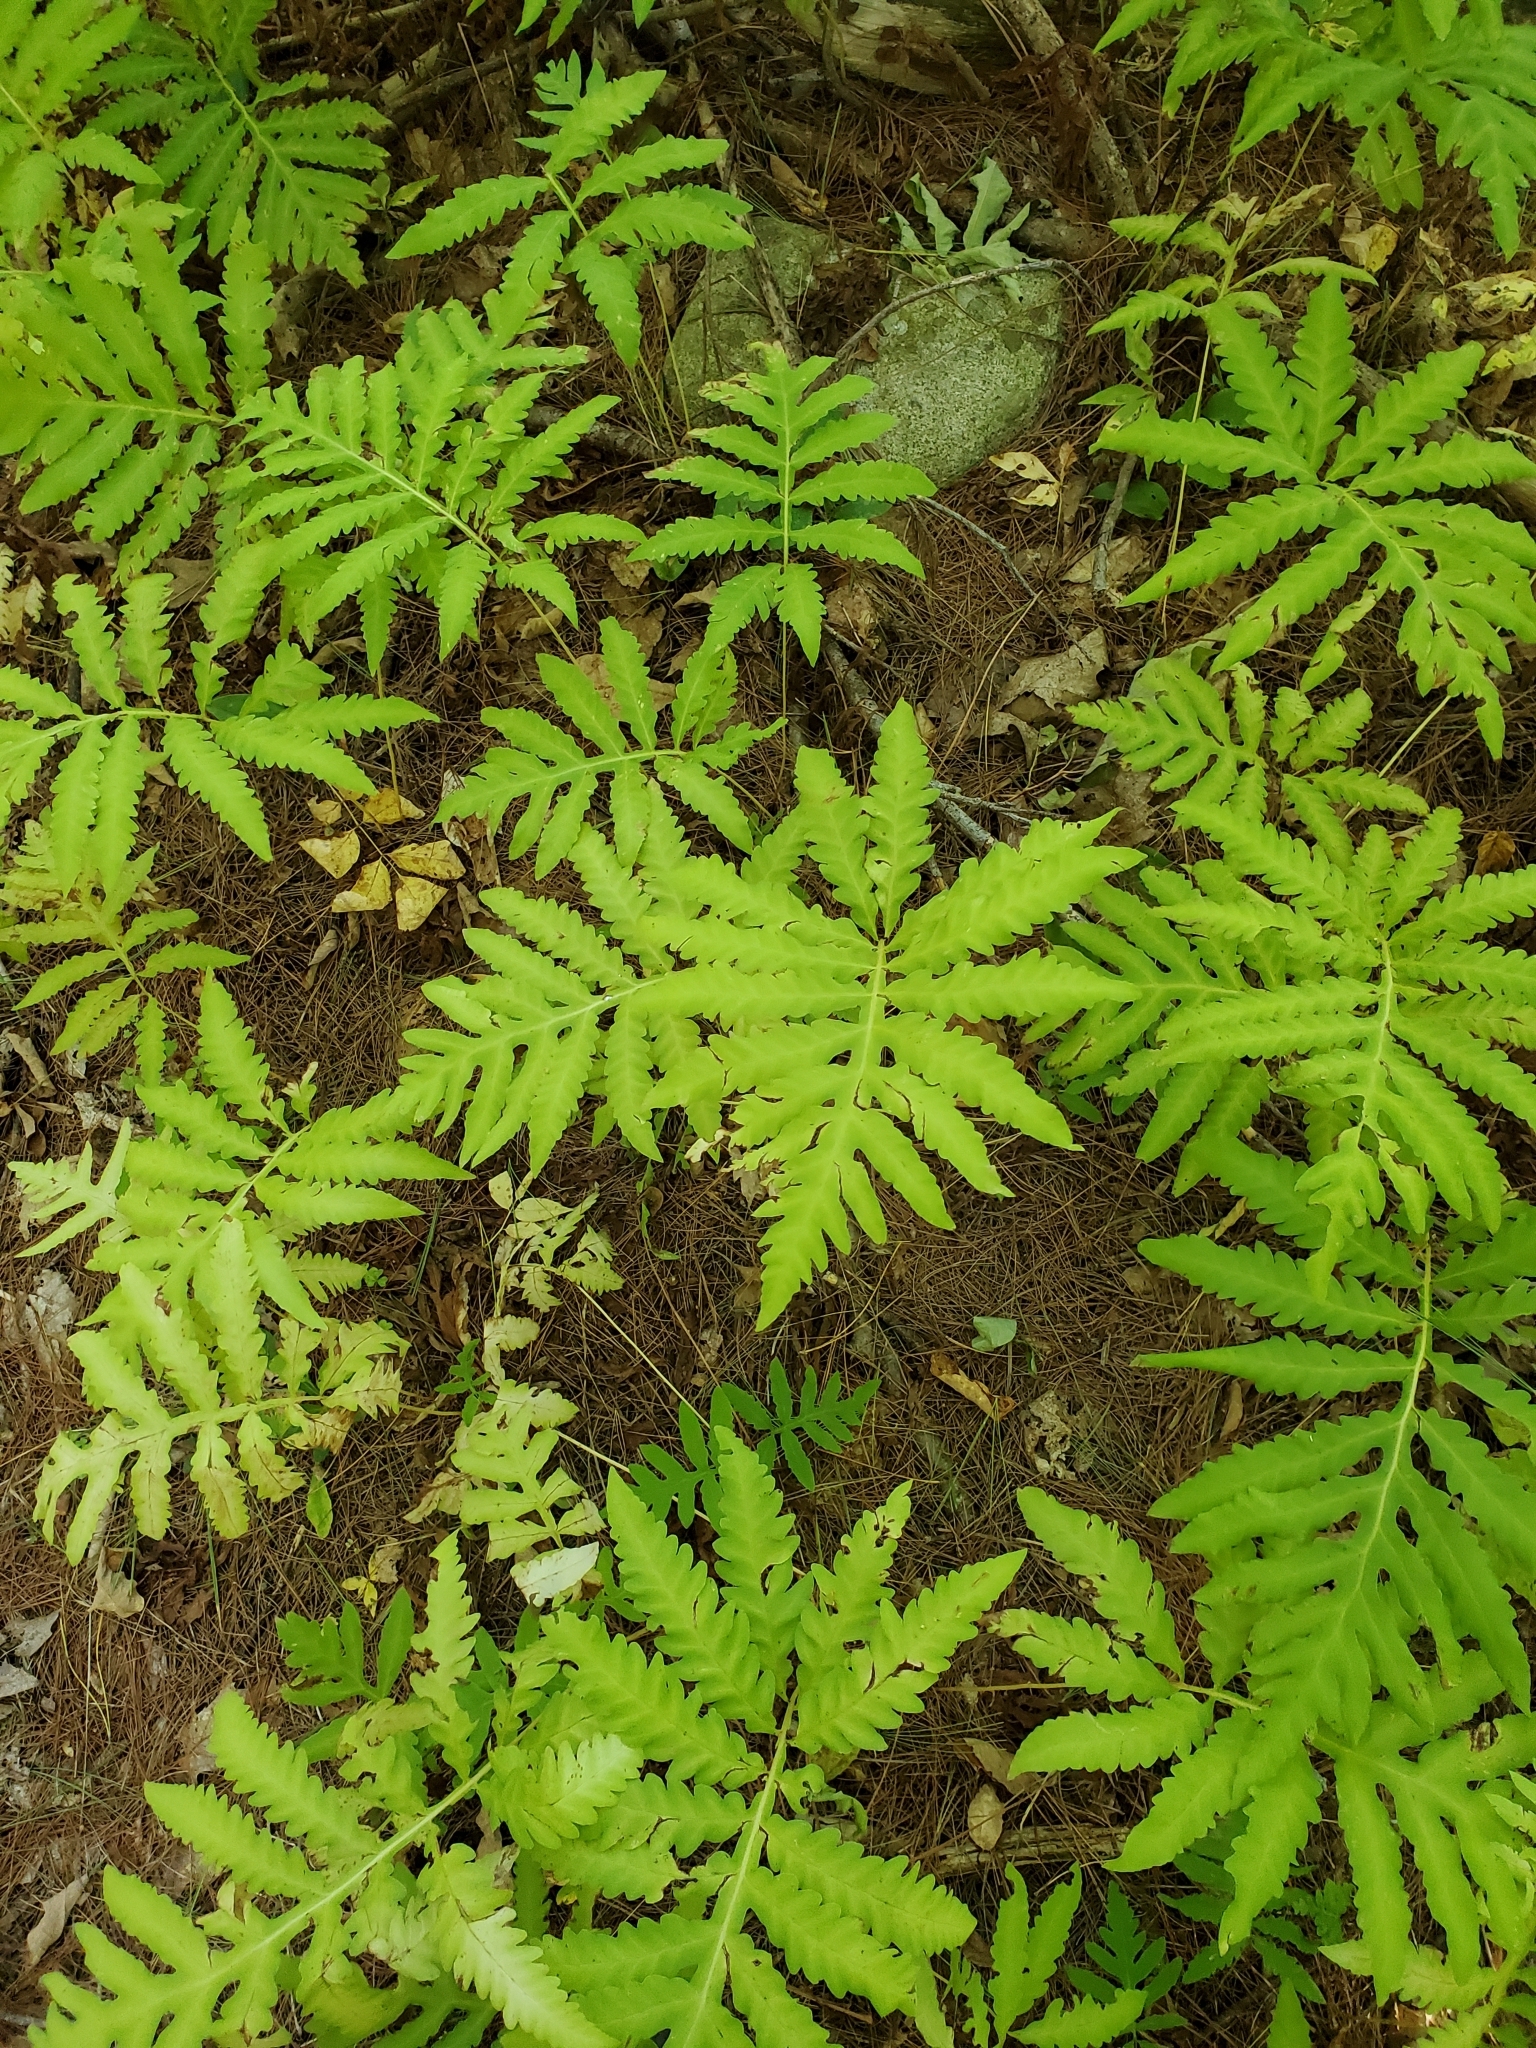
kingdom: Plantae
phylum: Tracheophyta
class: Polypodiopsida
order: Polypodiales
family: Onocleaceae
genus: Onoclea
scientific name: Onoclea sensibilis
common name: Sensitive fern
